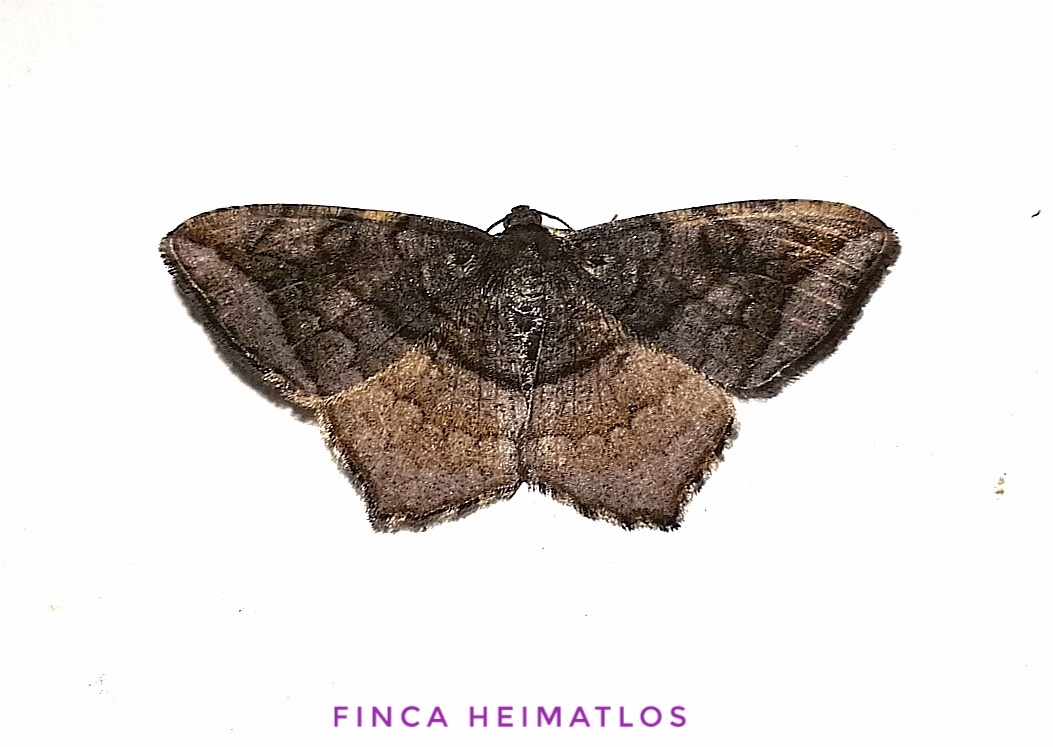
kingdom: Animalia
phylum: Arthropoda
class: Insecta
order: Lepidoptera
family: Geometridae
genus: Macaria
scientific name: Macaria cardinea
